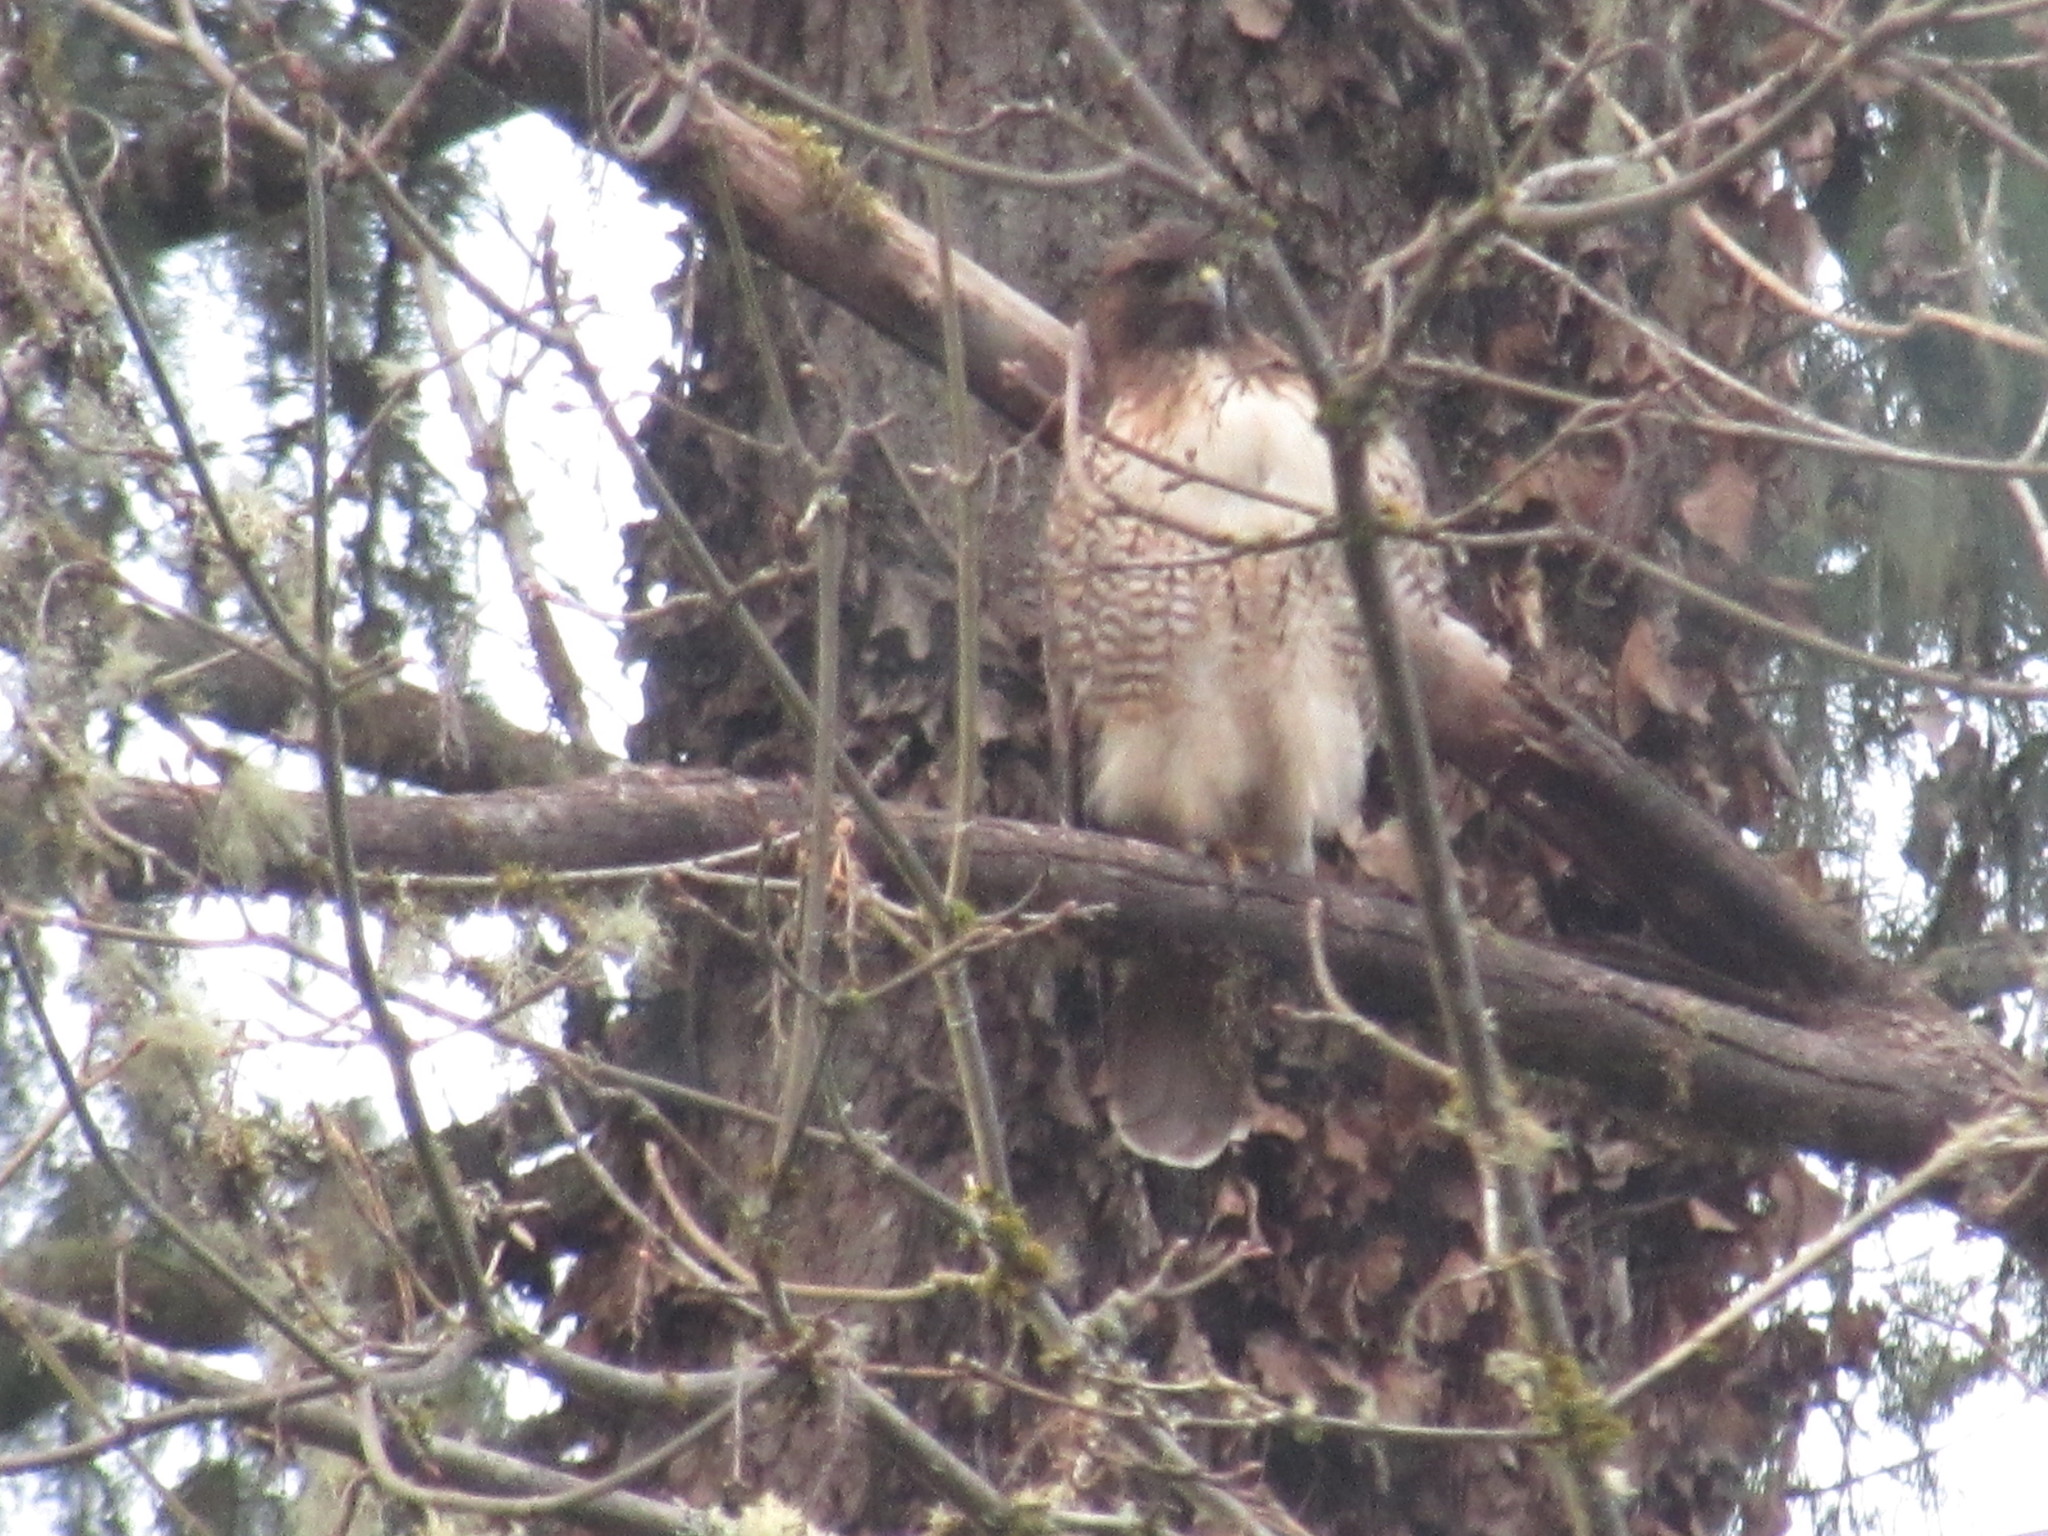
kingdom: Animalia
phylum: Chordata
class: Aves
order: Accipitriformes
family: Accipitridae
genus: Buteo
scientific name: Buteo jamaicensis
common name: Red-tailed hawk
